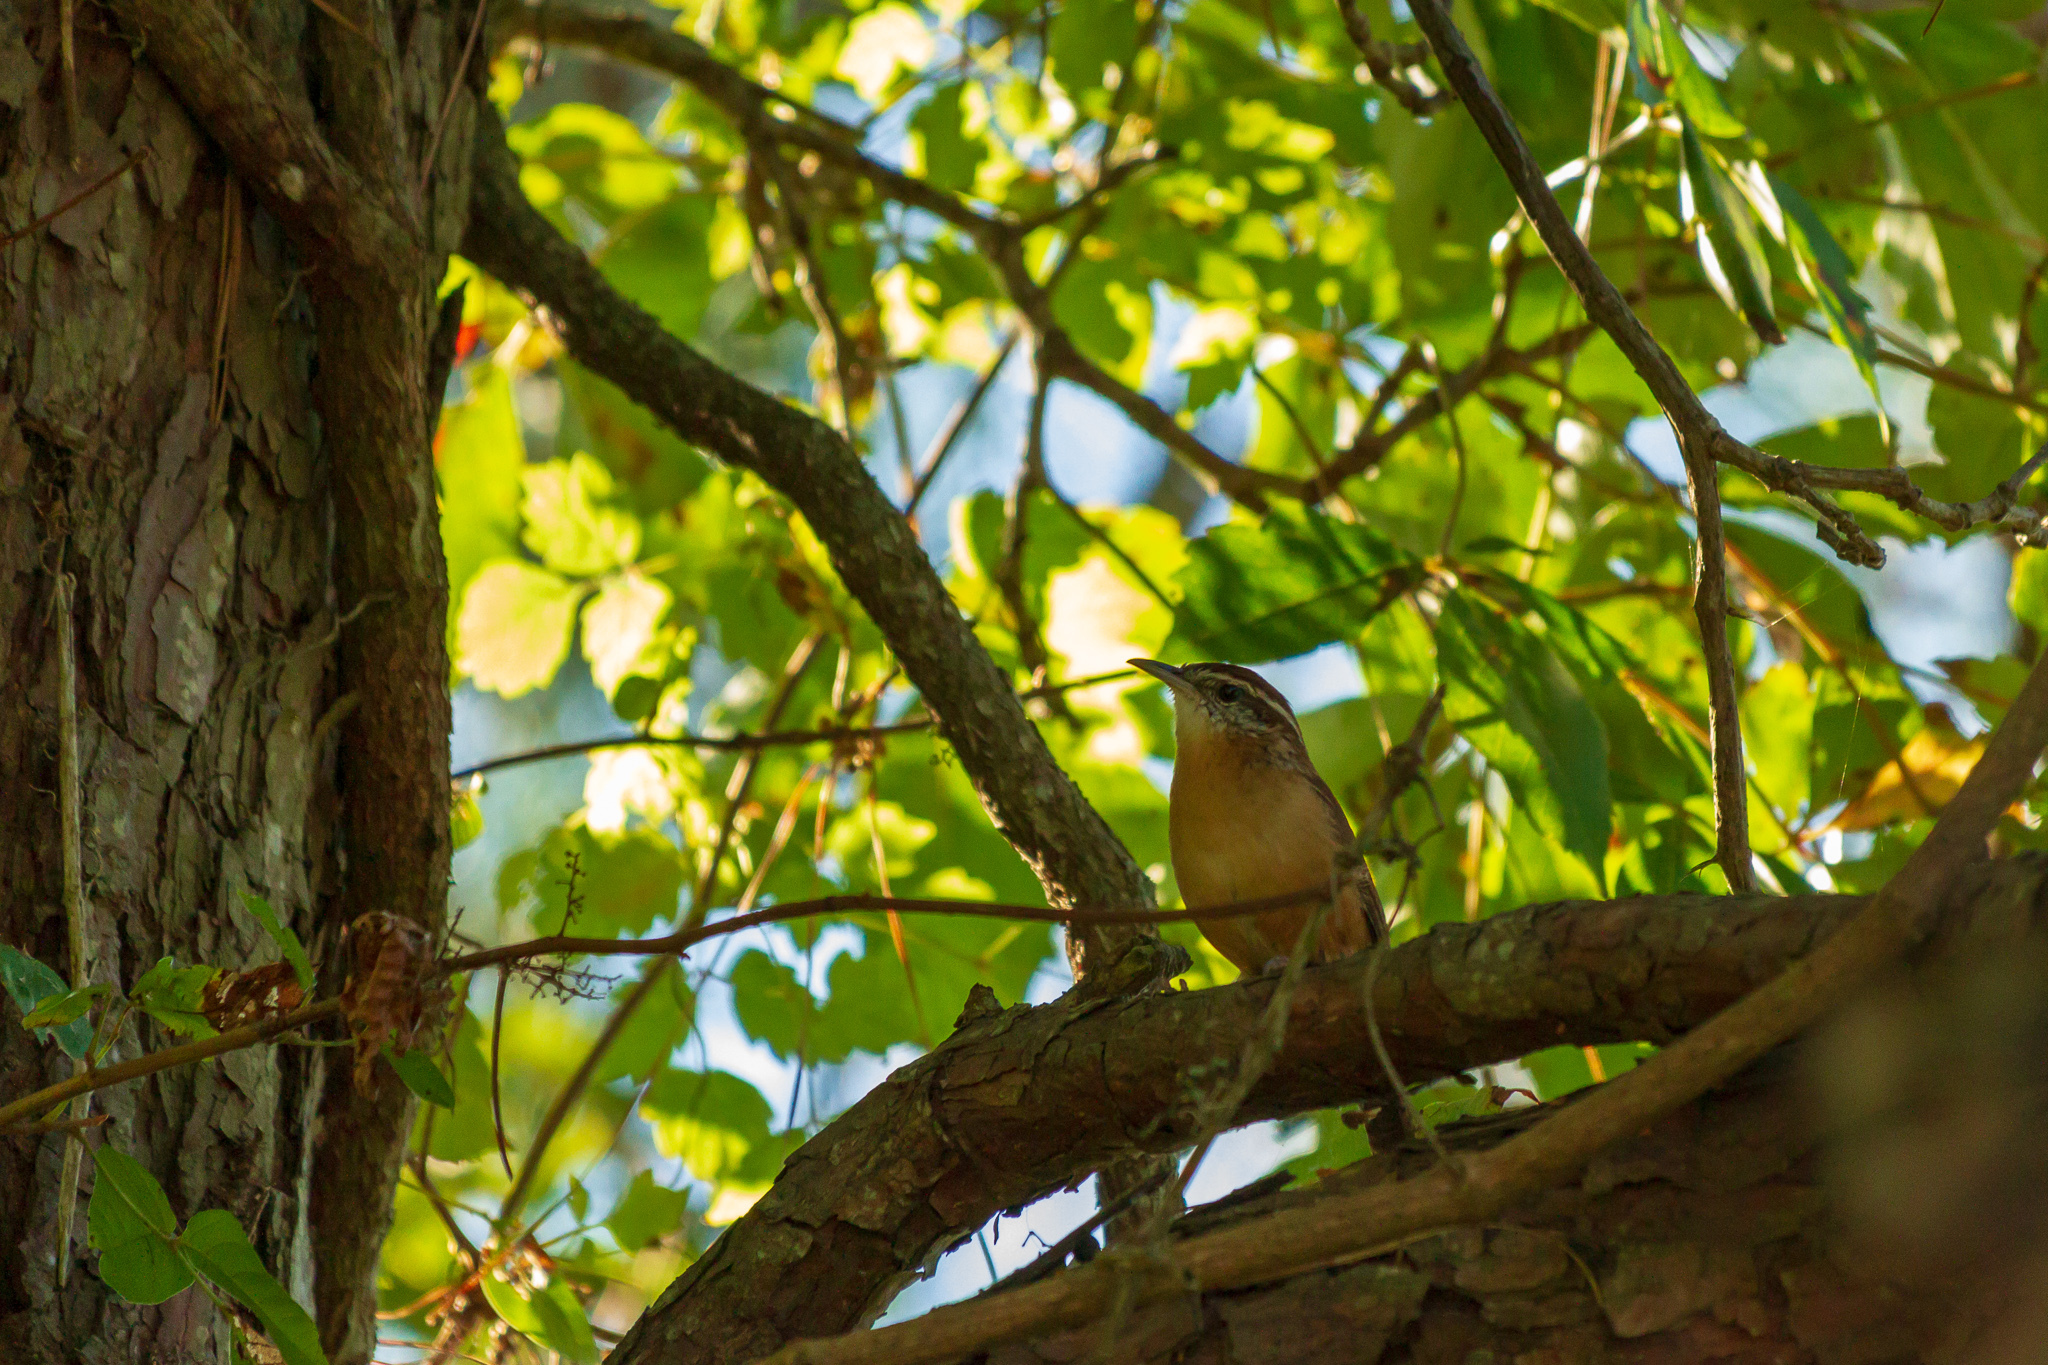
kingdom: Animalia
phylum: Chordata
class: Aves
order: Passeriformes
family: Troglodytidae
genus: Thryothorus
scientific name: Thryothorus ludovicianus
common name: Carolina wren
